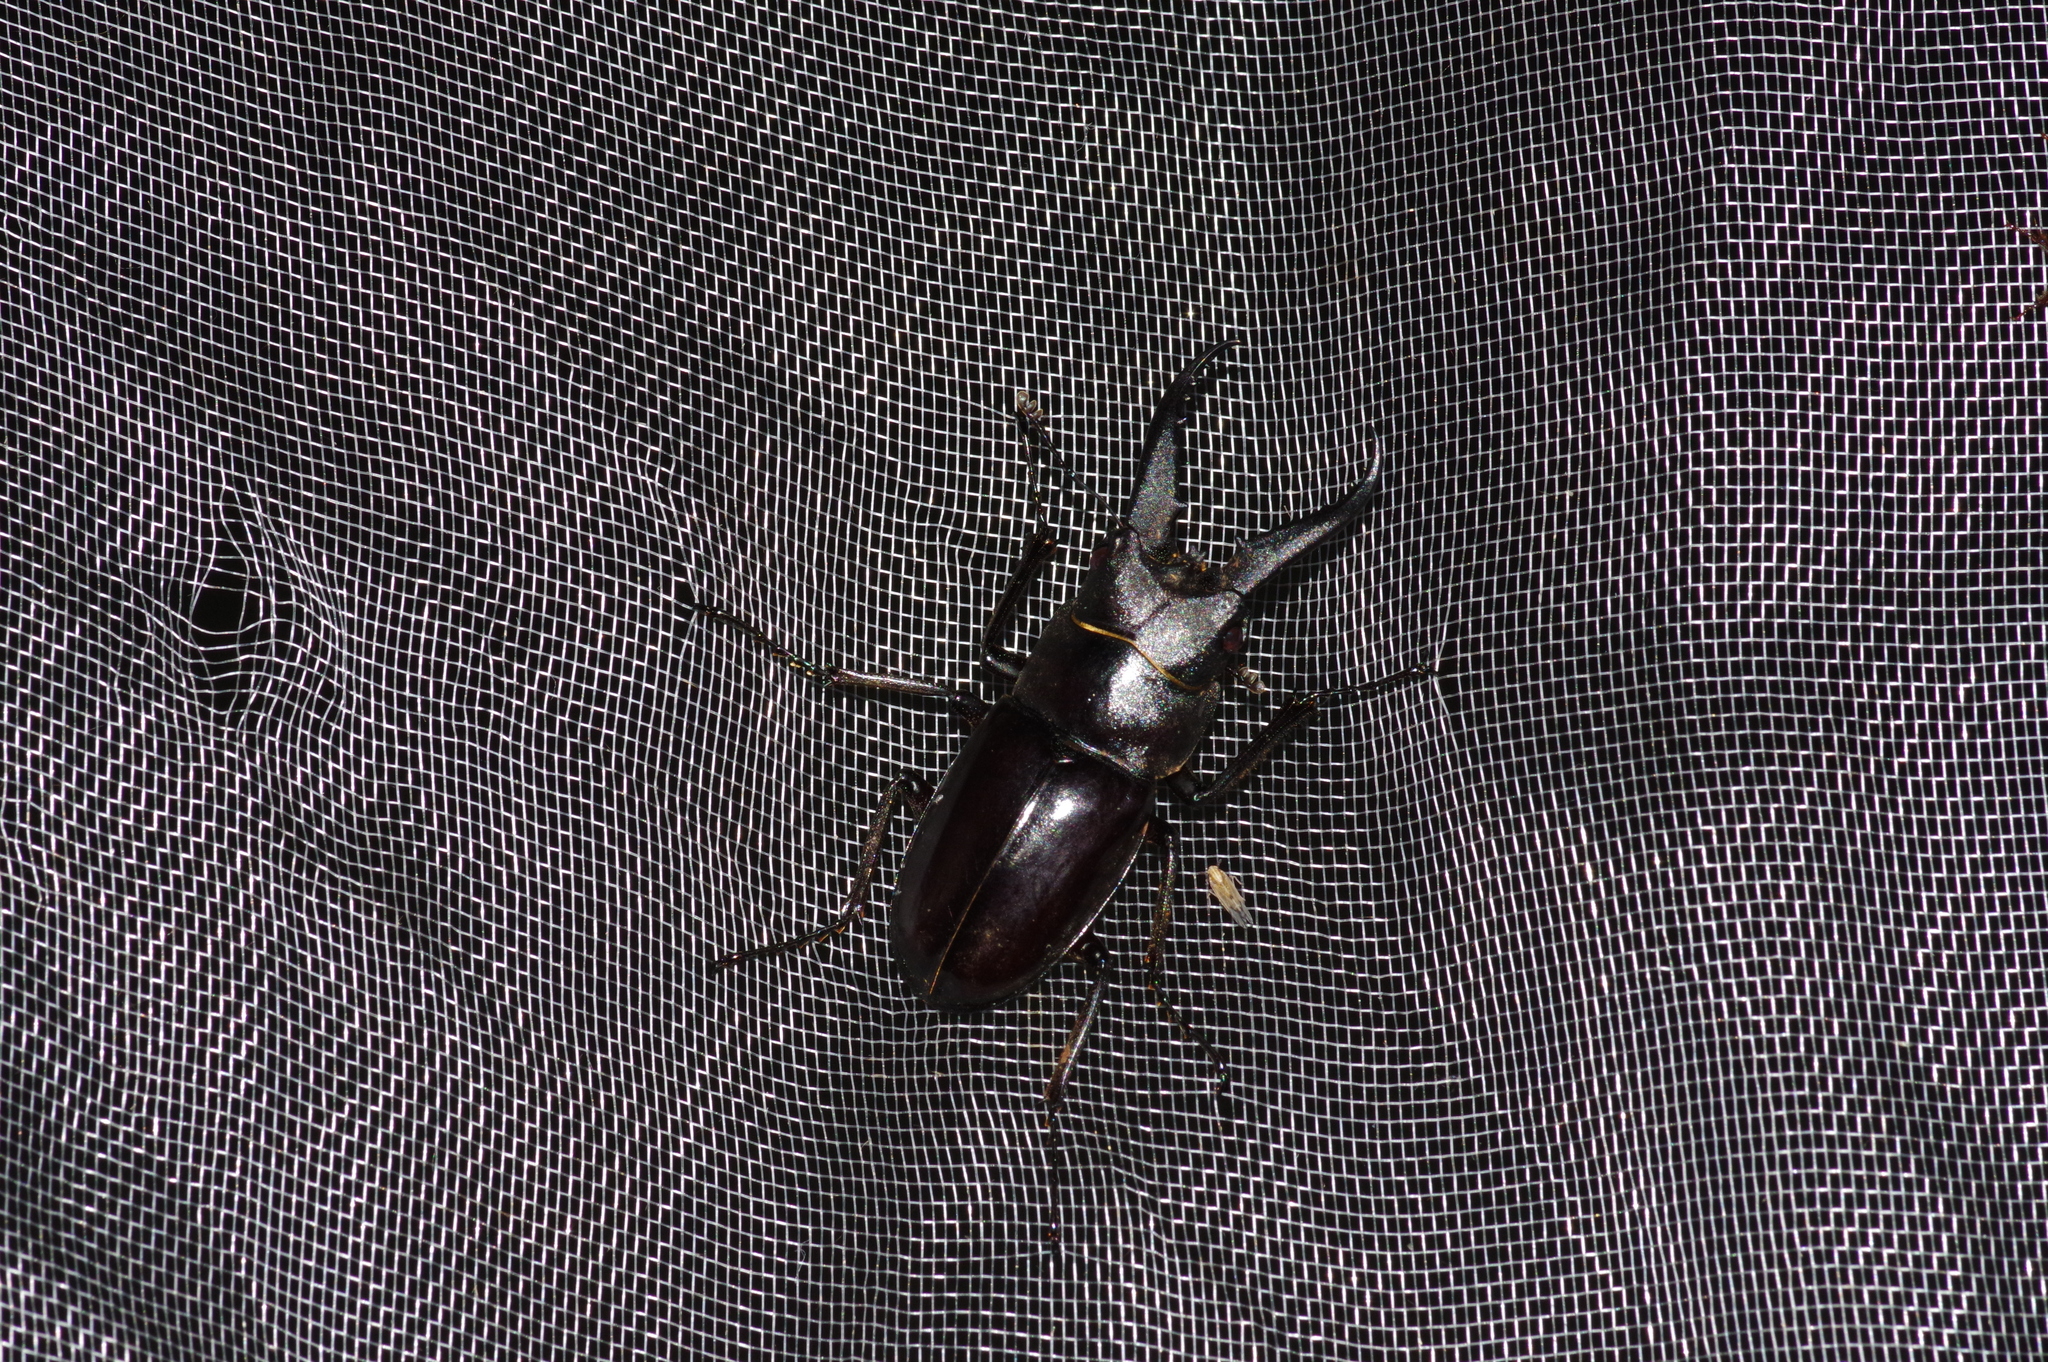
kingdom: Animalia
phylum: Arthropoda
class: Insecta
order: Coleoptera
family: Lucanidae
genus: Prosopocoilus
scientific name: Prosopocoilus dissimilis
